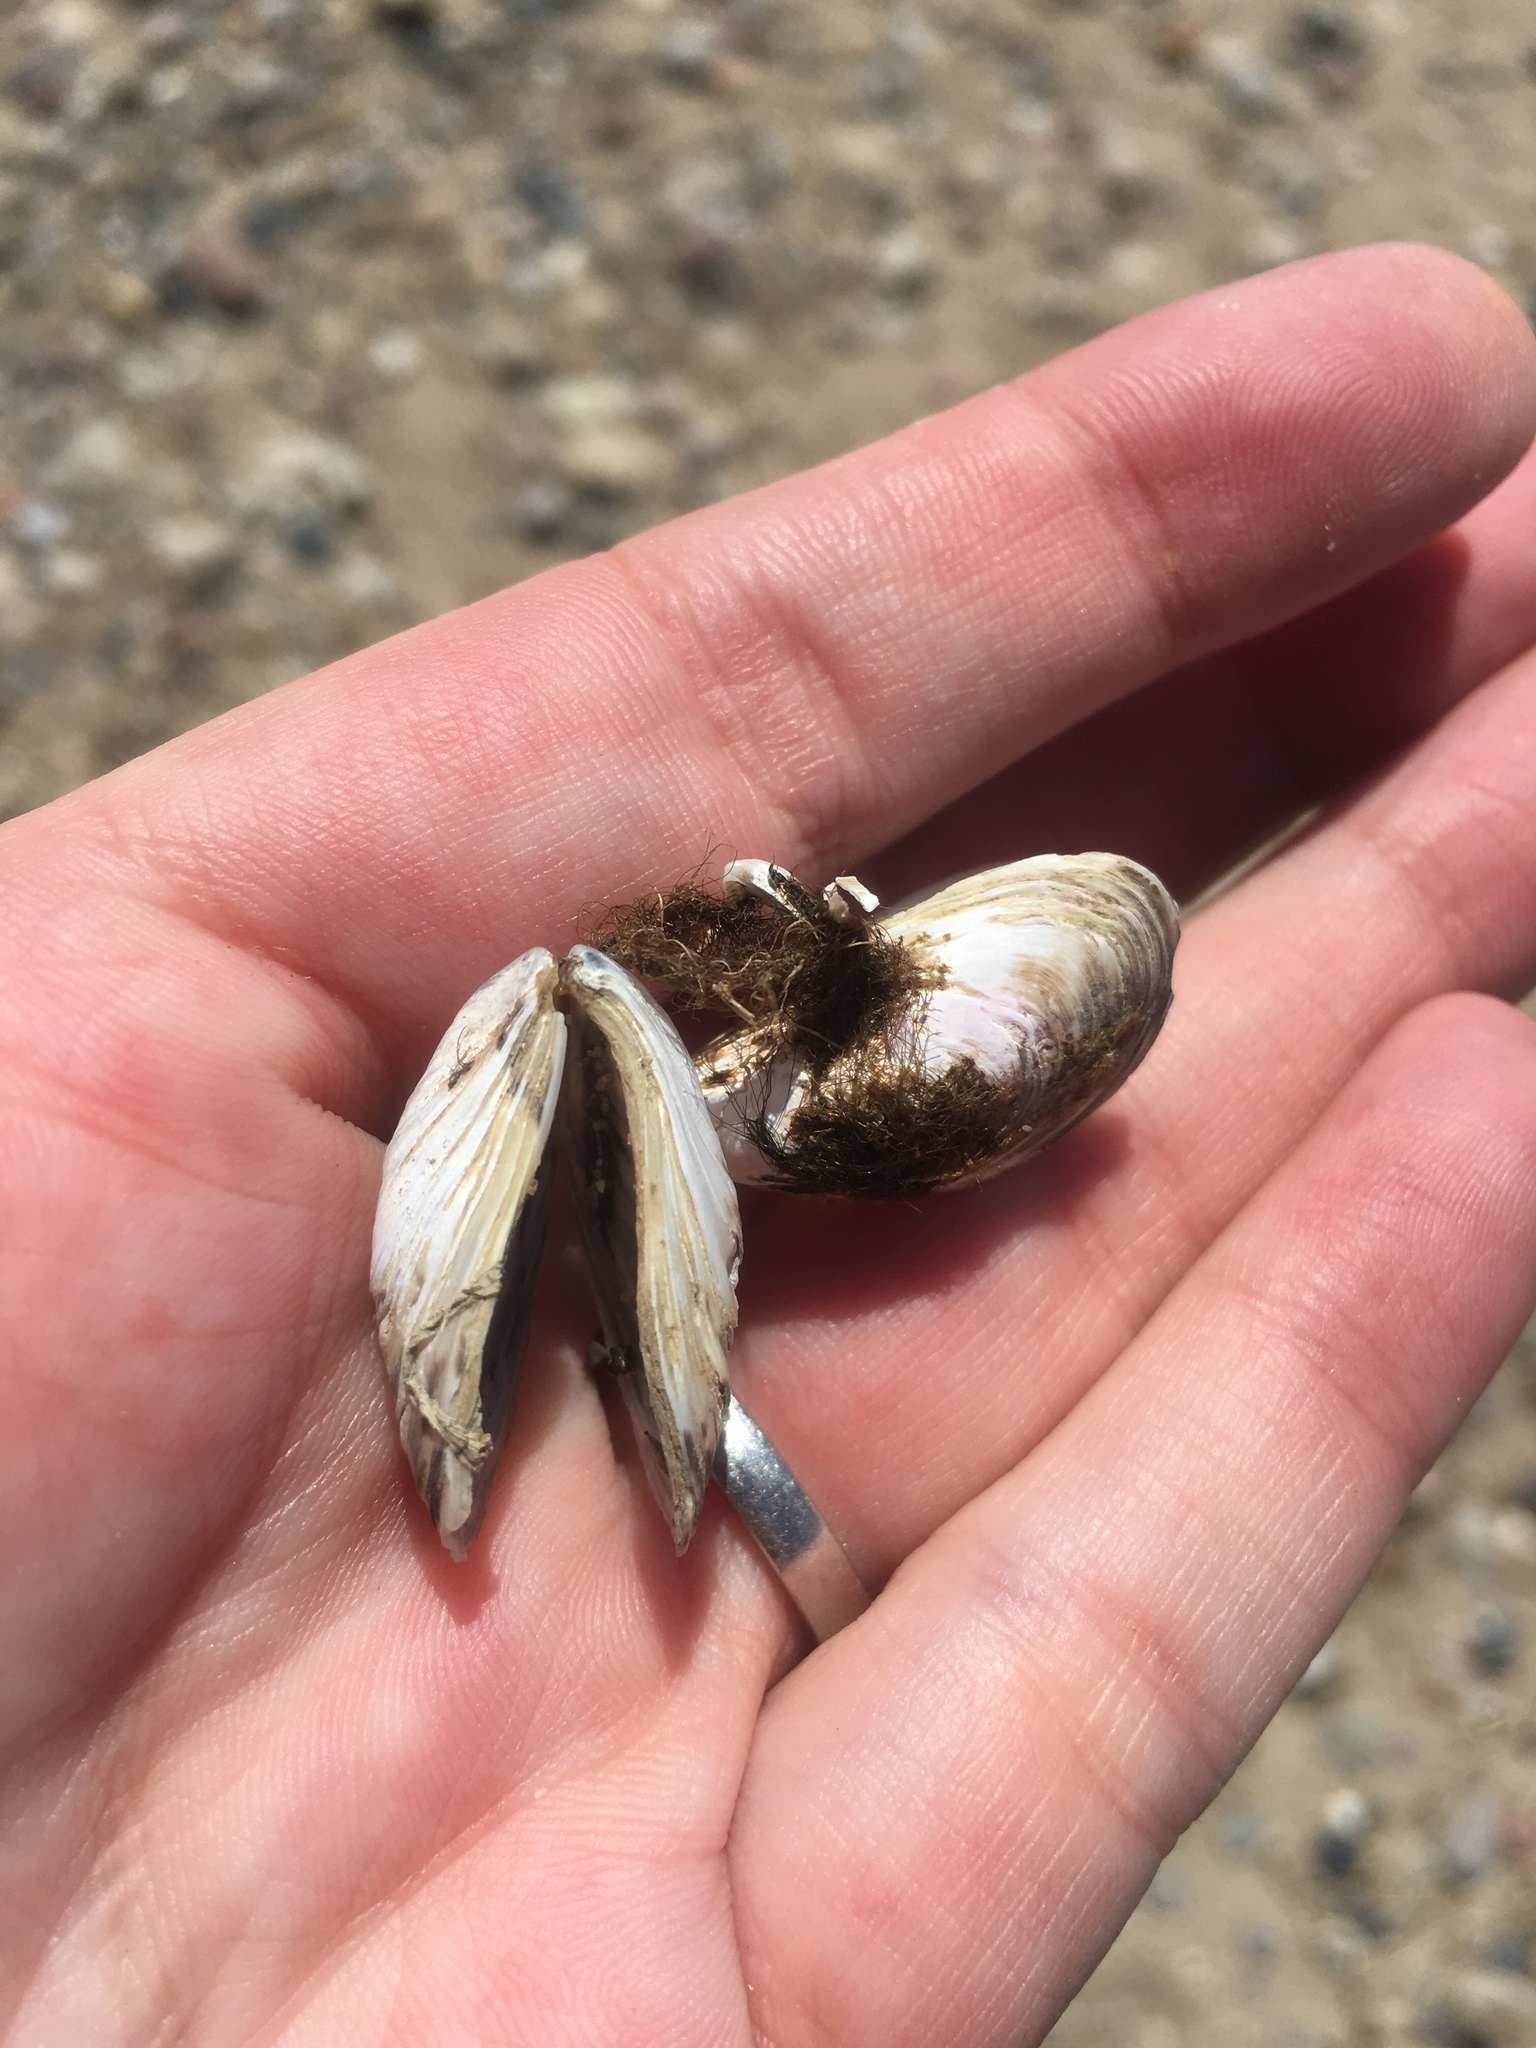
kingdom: Animalia
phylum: Mollusca
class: Bivalvia
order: Myida
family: Dreissenidae
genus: Dreissena
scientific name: Dreissena bugensis
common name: Quagga mussel
